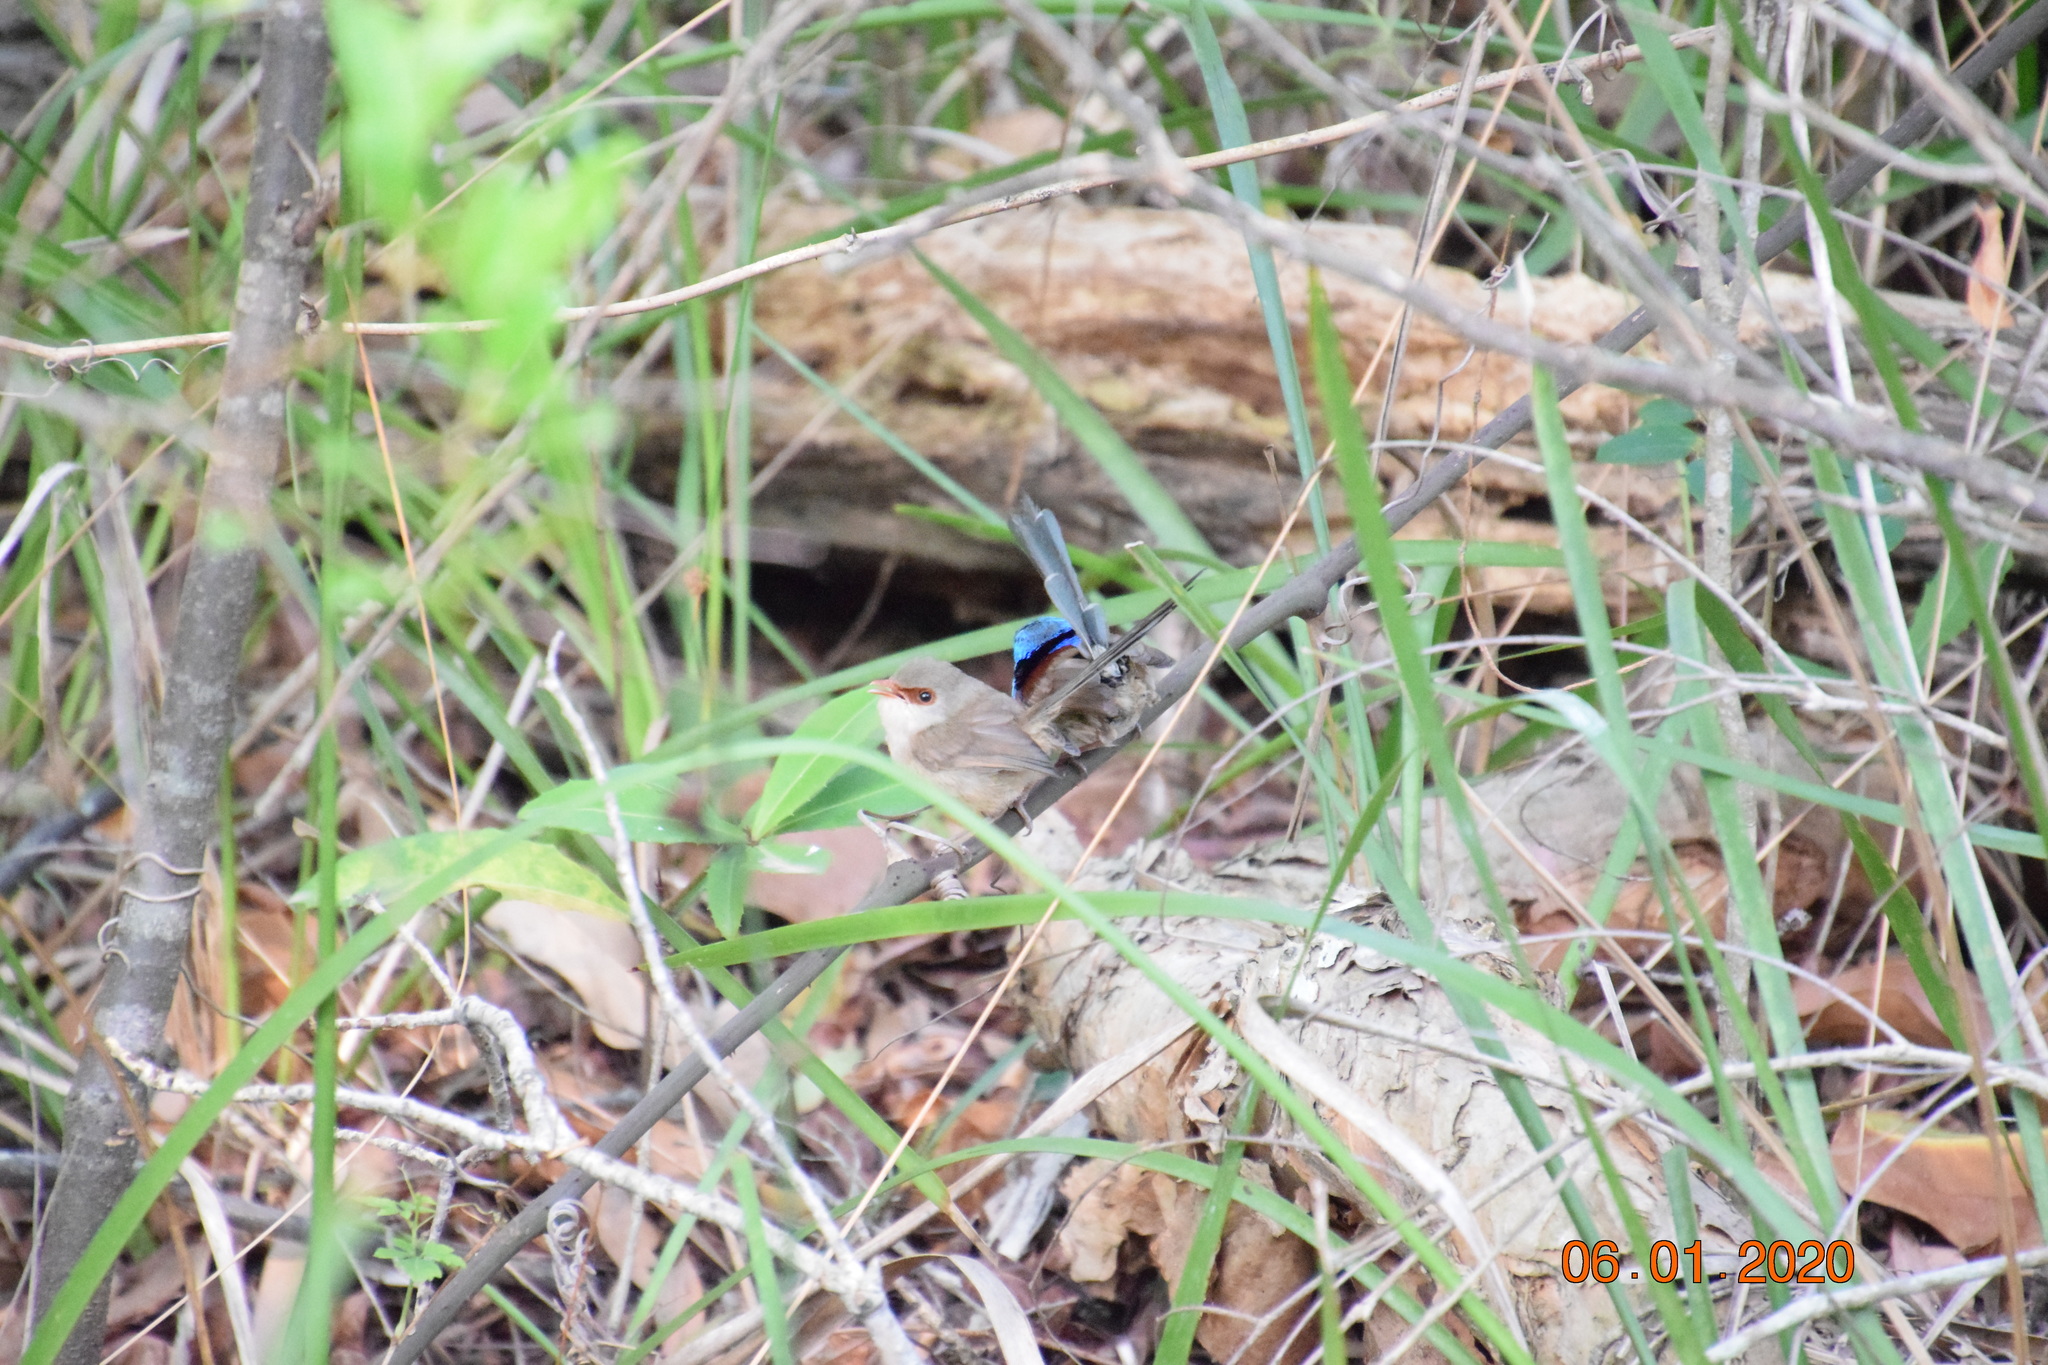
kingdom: Animalia
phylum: Chordata
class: Aves
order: Passeriformes
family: Maluridae
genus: Malurus
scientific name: Malurus lamberti
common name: Variegated fairywren
